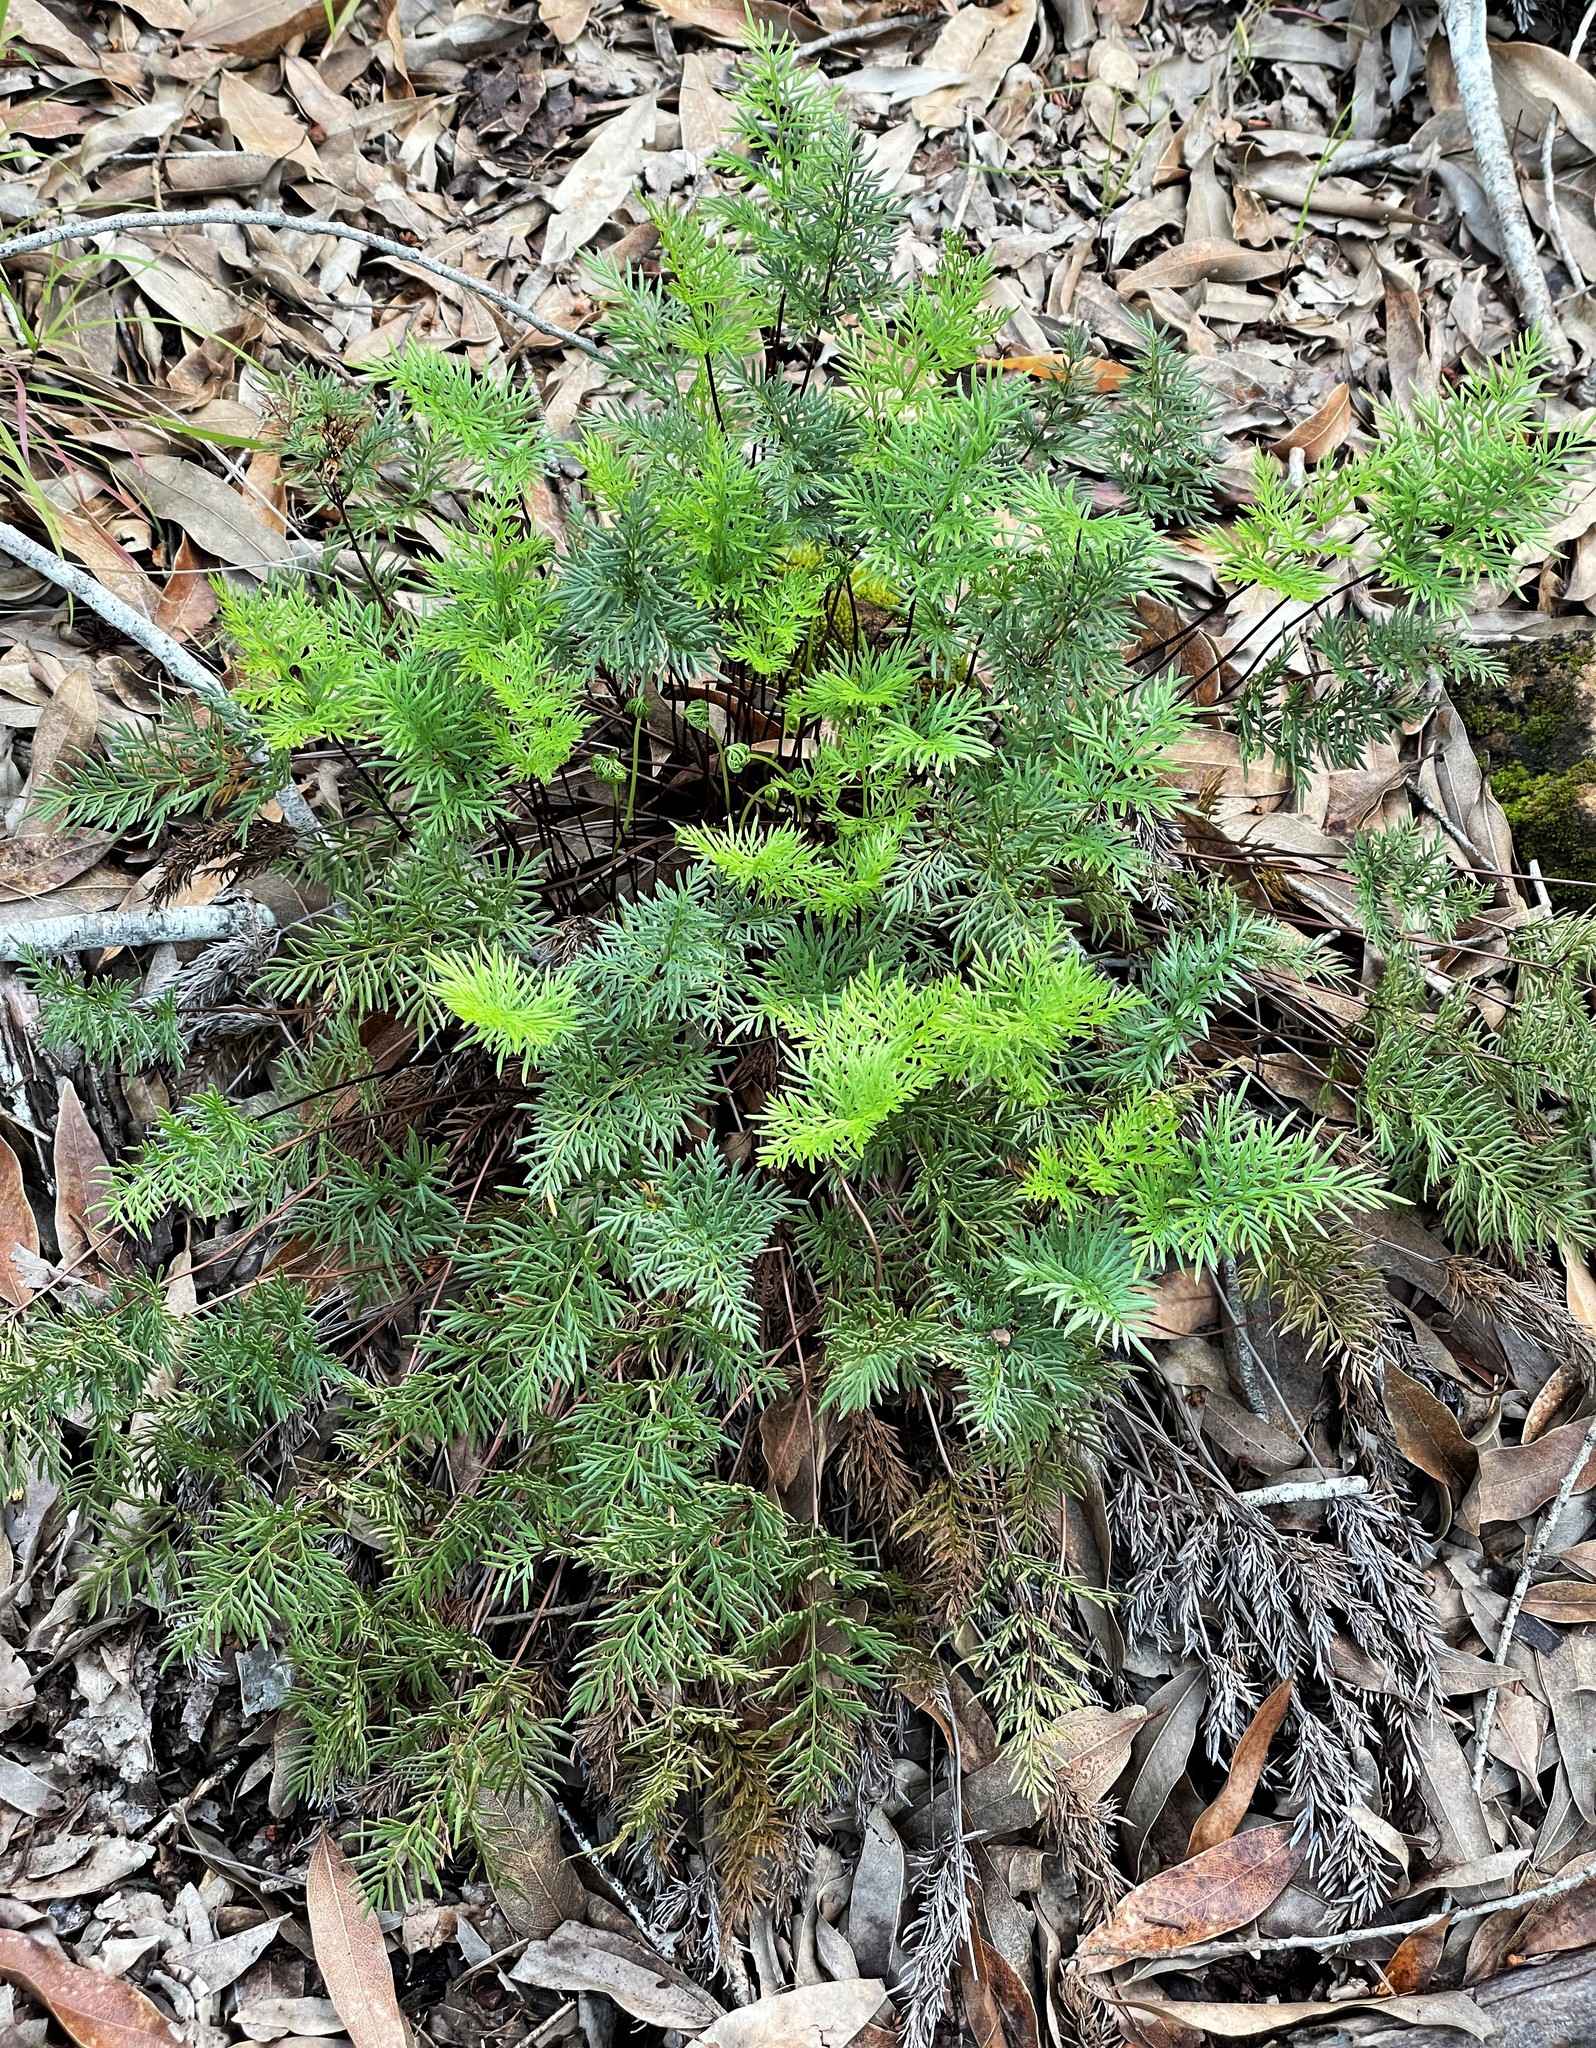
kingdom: Plantae
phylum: Tracheophyta
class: Polypodiopsida
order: Polypodiales
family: Pteridaceae
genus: Aspidotis
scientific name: Aspidotis densa
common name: Indian's dream
